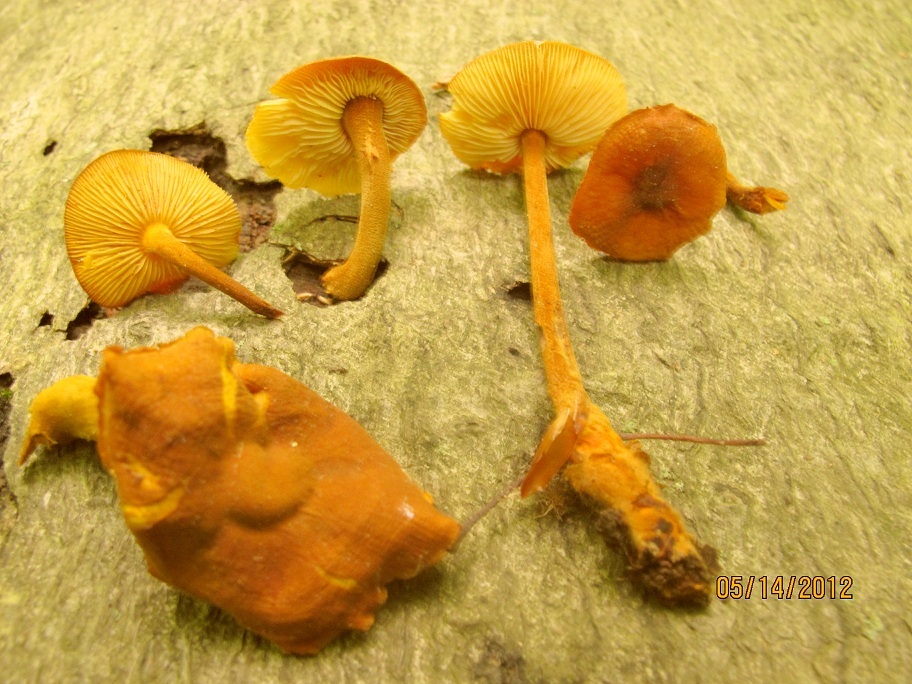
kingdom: Fungi
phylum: Basidiomycota
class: Agaricomycetes
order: Agaricales
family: Mycenaceae
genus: Xeromphalina
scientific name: Xeromphalina tenuipes
